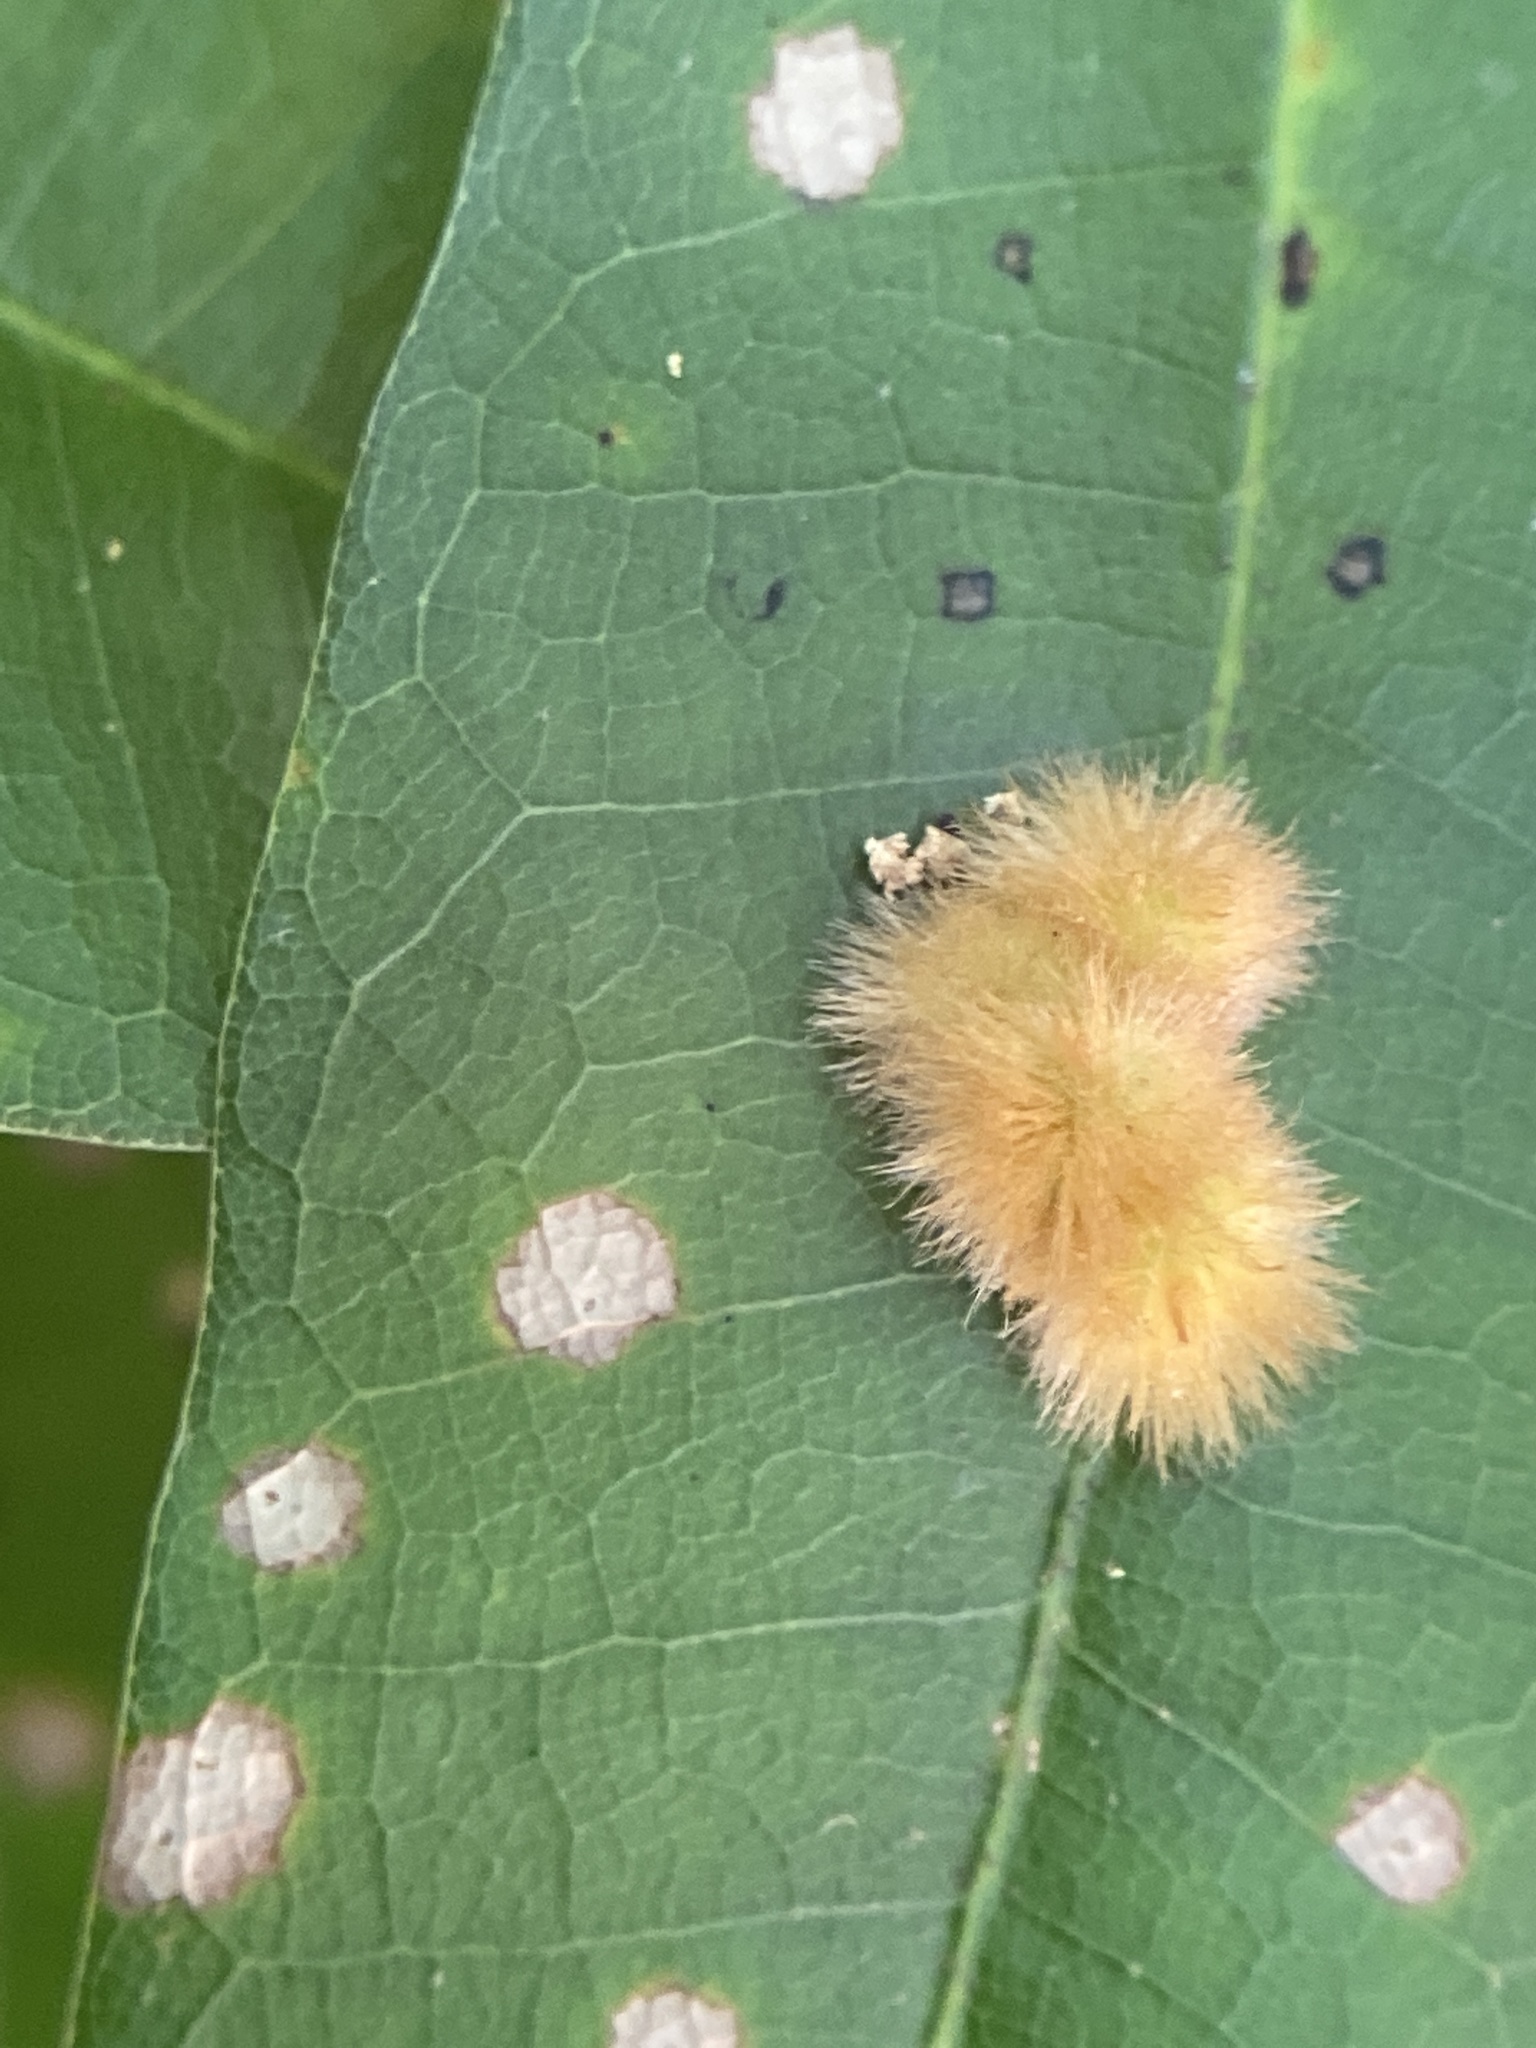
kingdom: Animalia
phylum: Arthropoda
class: Insecta
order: Hymenoptera
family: Cynipidae
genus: Callirhytis
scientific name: Callirhytis
